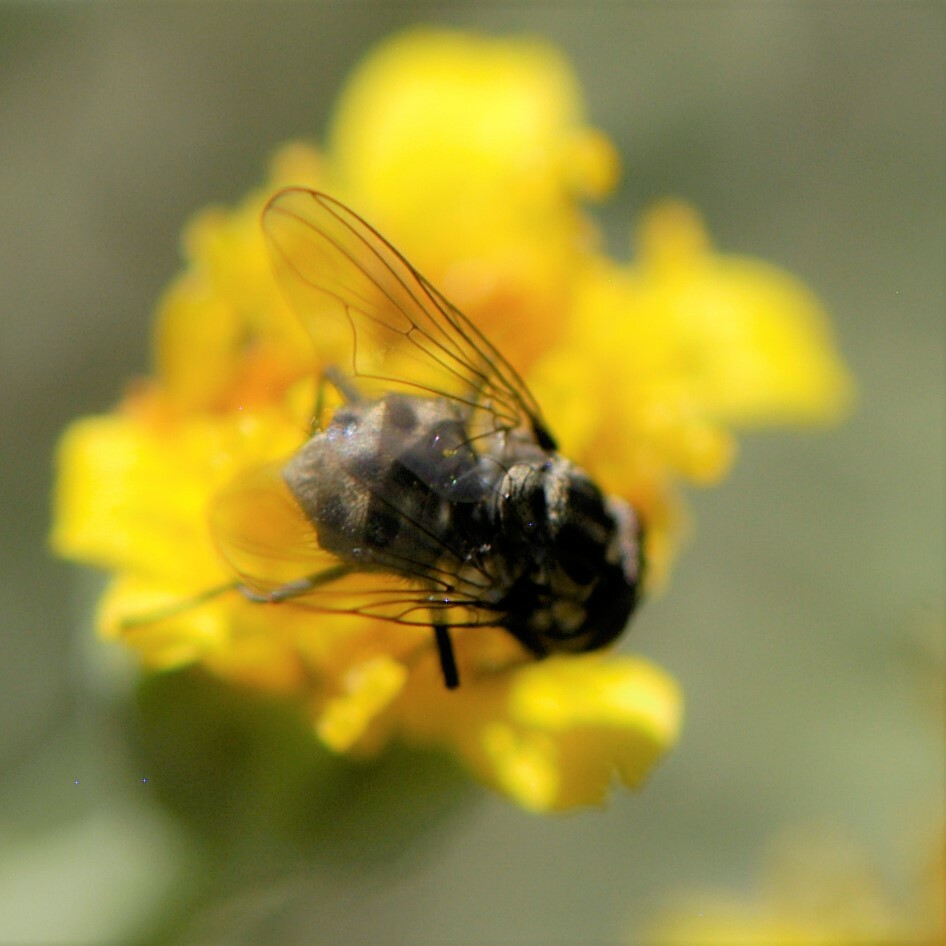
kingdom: Animalia
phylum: Arthropoda
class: Insecta
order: Diptera
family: Muscidae
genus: Stomoxys
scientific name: Stomoxys calcitrans
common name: Stable fly
